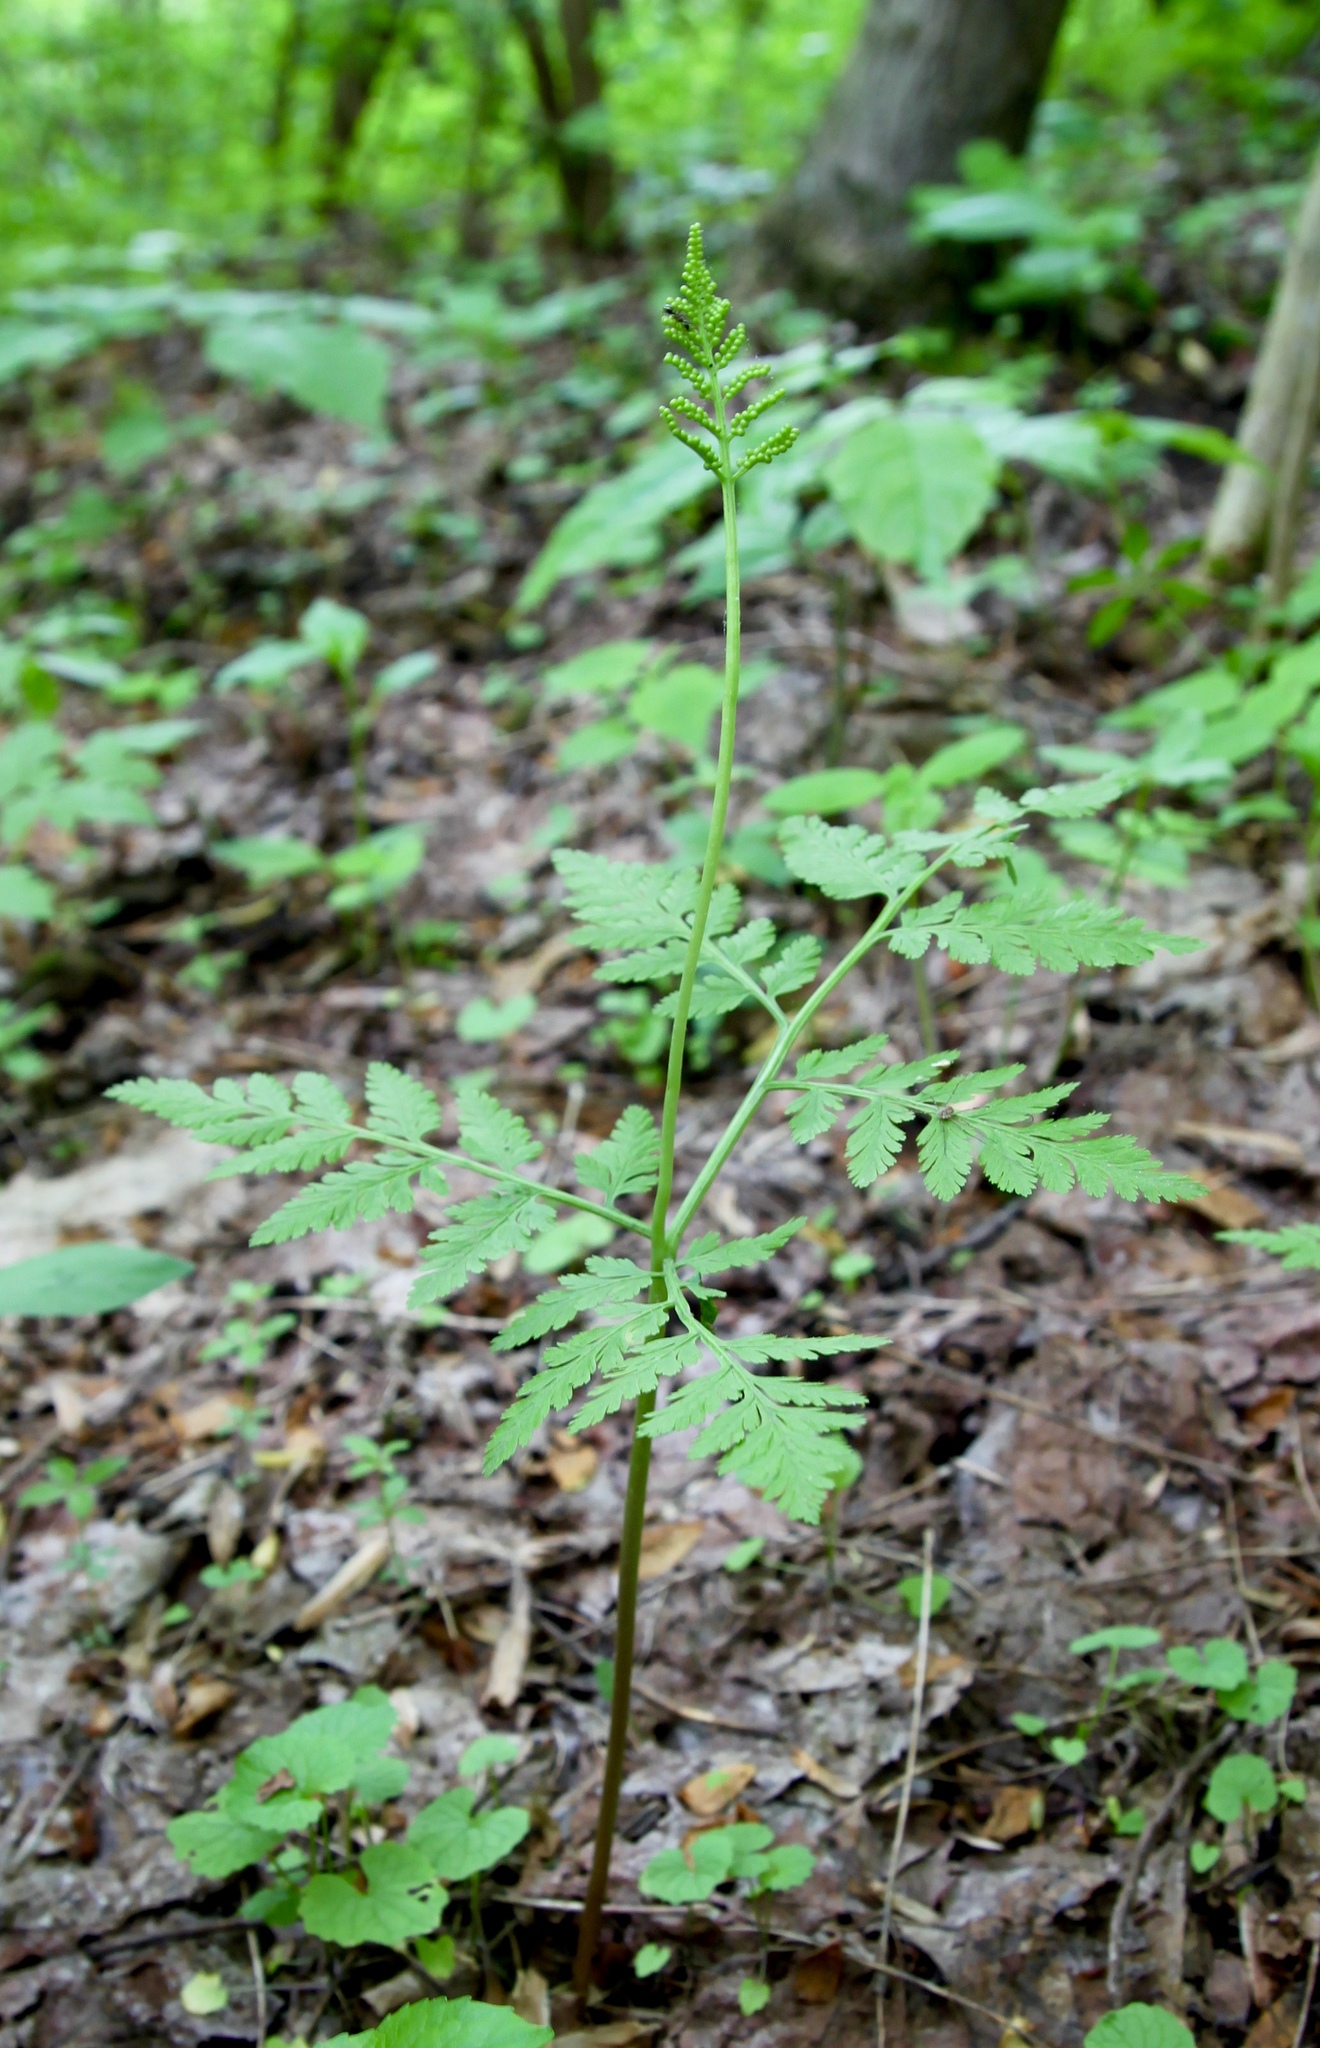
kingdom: Plantae
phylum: Tracheophyta
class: Polypodiopsida
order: Ophioglossales
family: Ophioglossaceae
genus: Botrypus
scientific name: Botrypus virginianus
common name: Common grapefern
